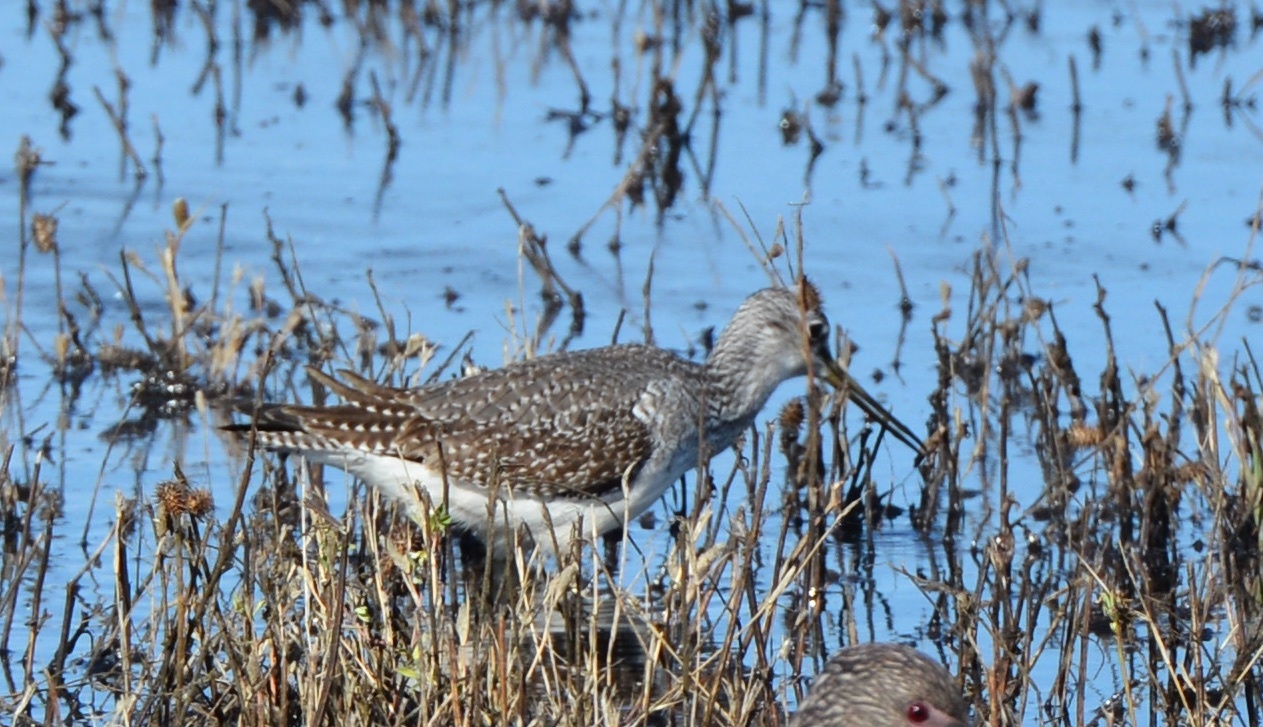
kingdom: Animalia
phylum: Chordata
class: Aves
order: Charadriiformes
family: Scolopacidae
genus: Tringa
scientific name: Tringa melanoleuca
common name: Greater yellowlegs
